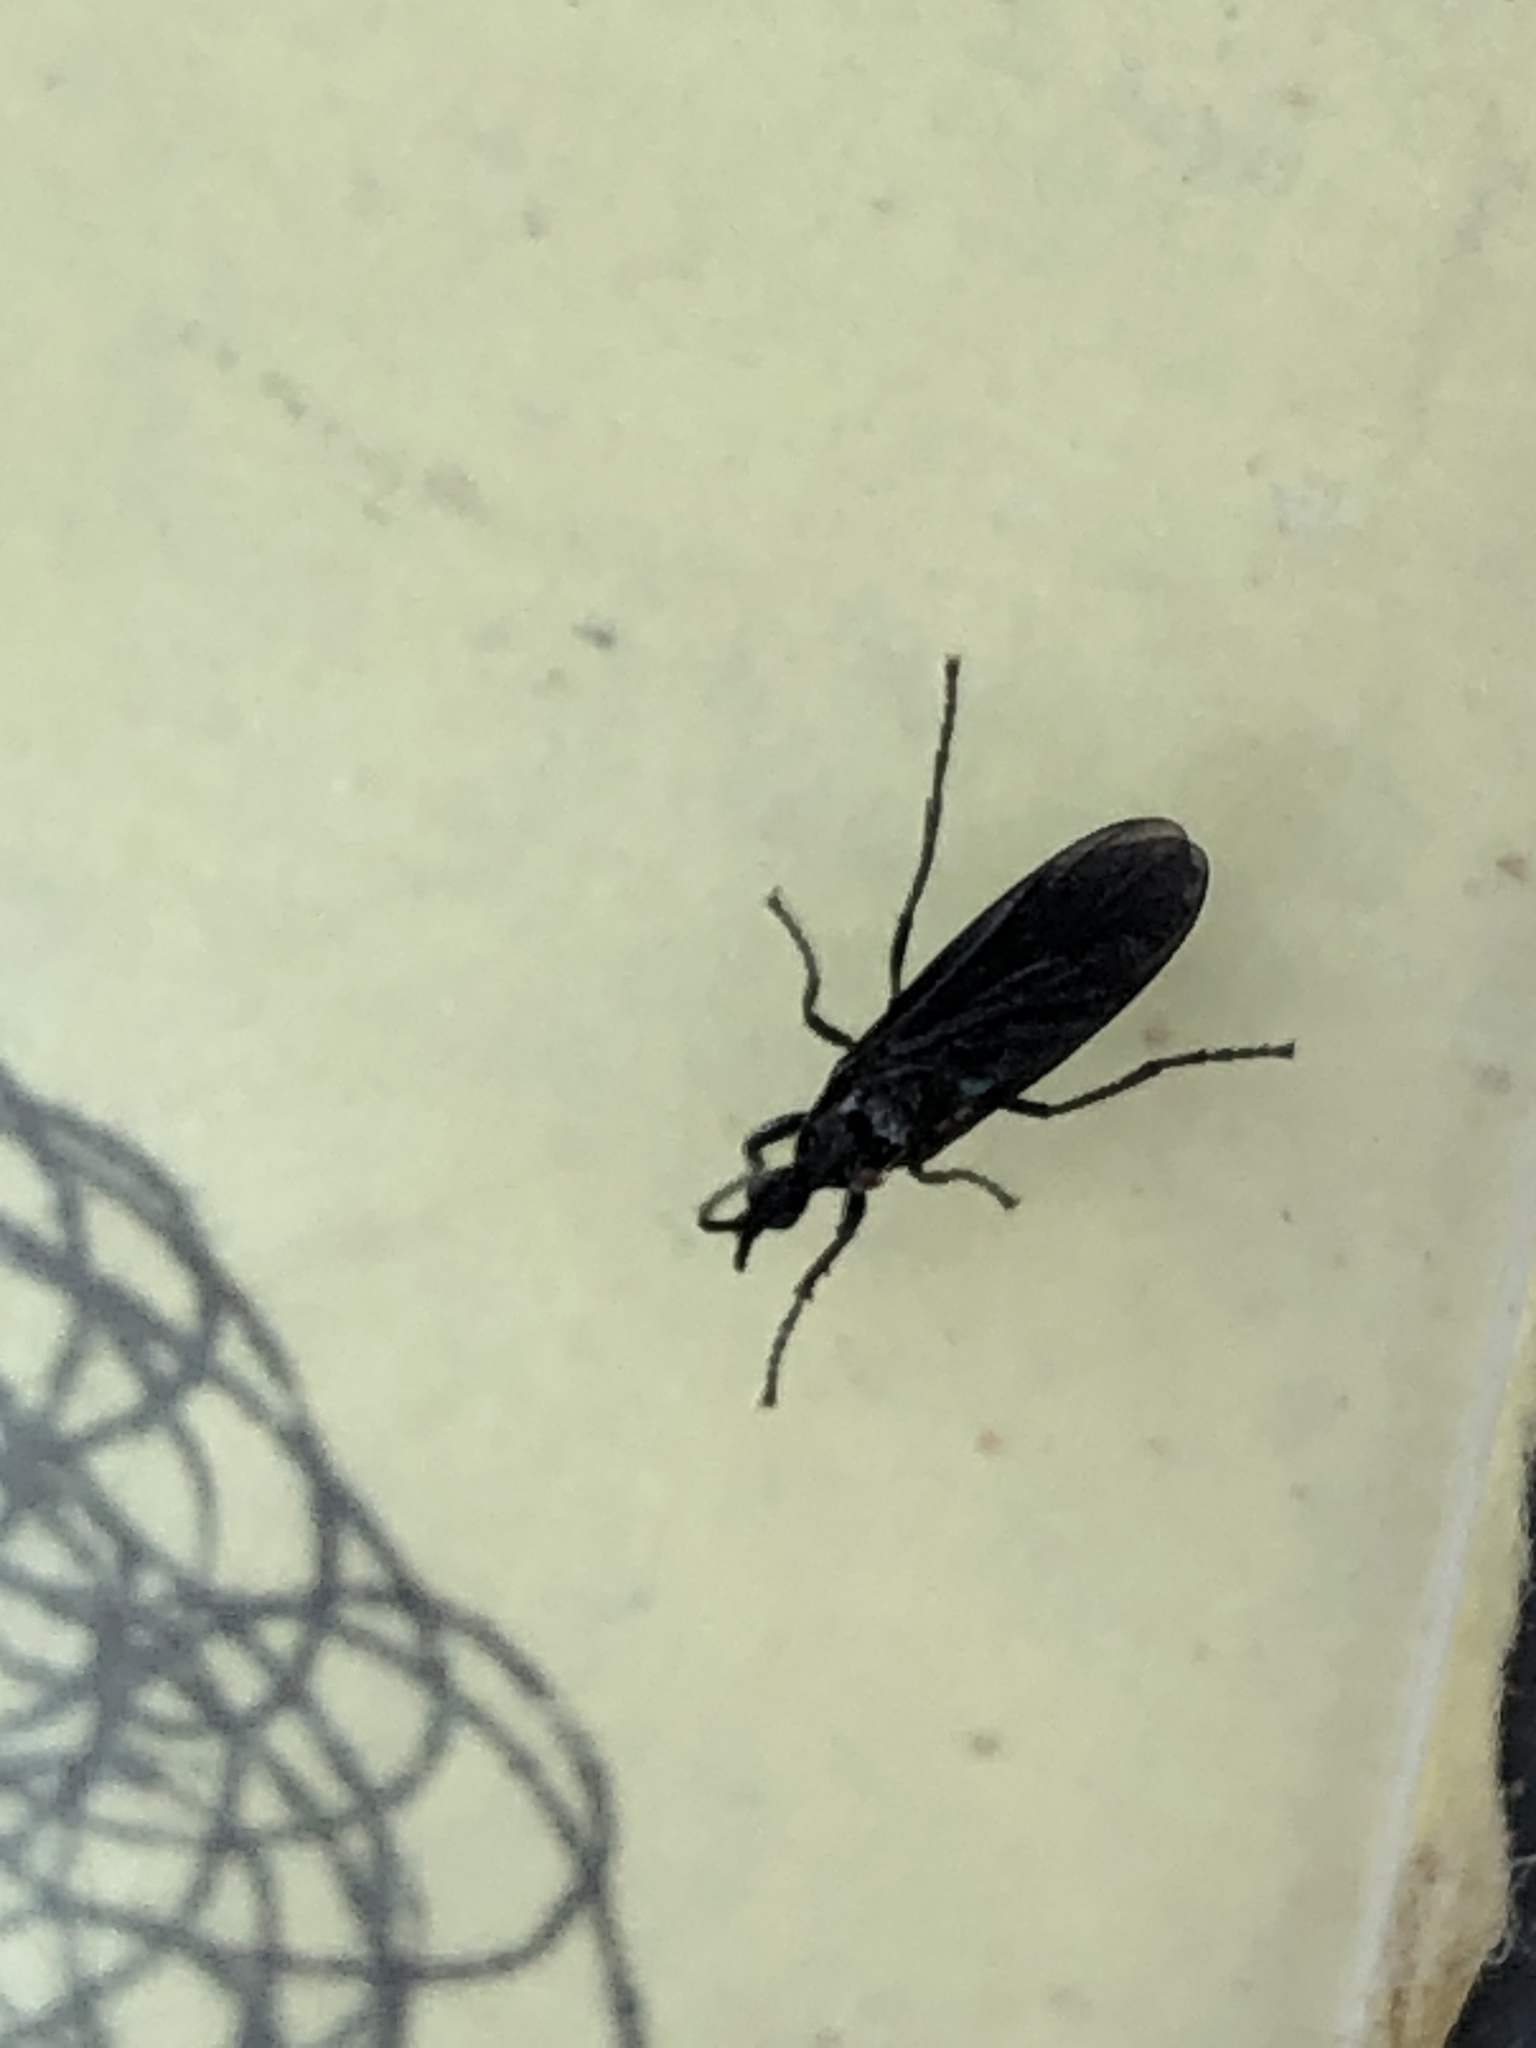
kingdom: Animalia
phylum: Arthropoda
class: Insecta
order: Diptera
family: Bibionidae
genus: Dilophus
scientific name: Dilophus orbatus
